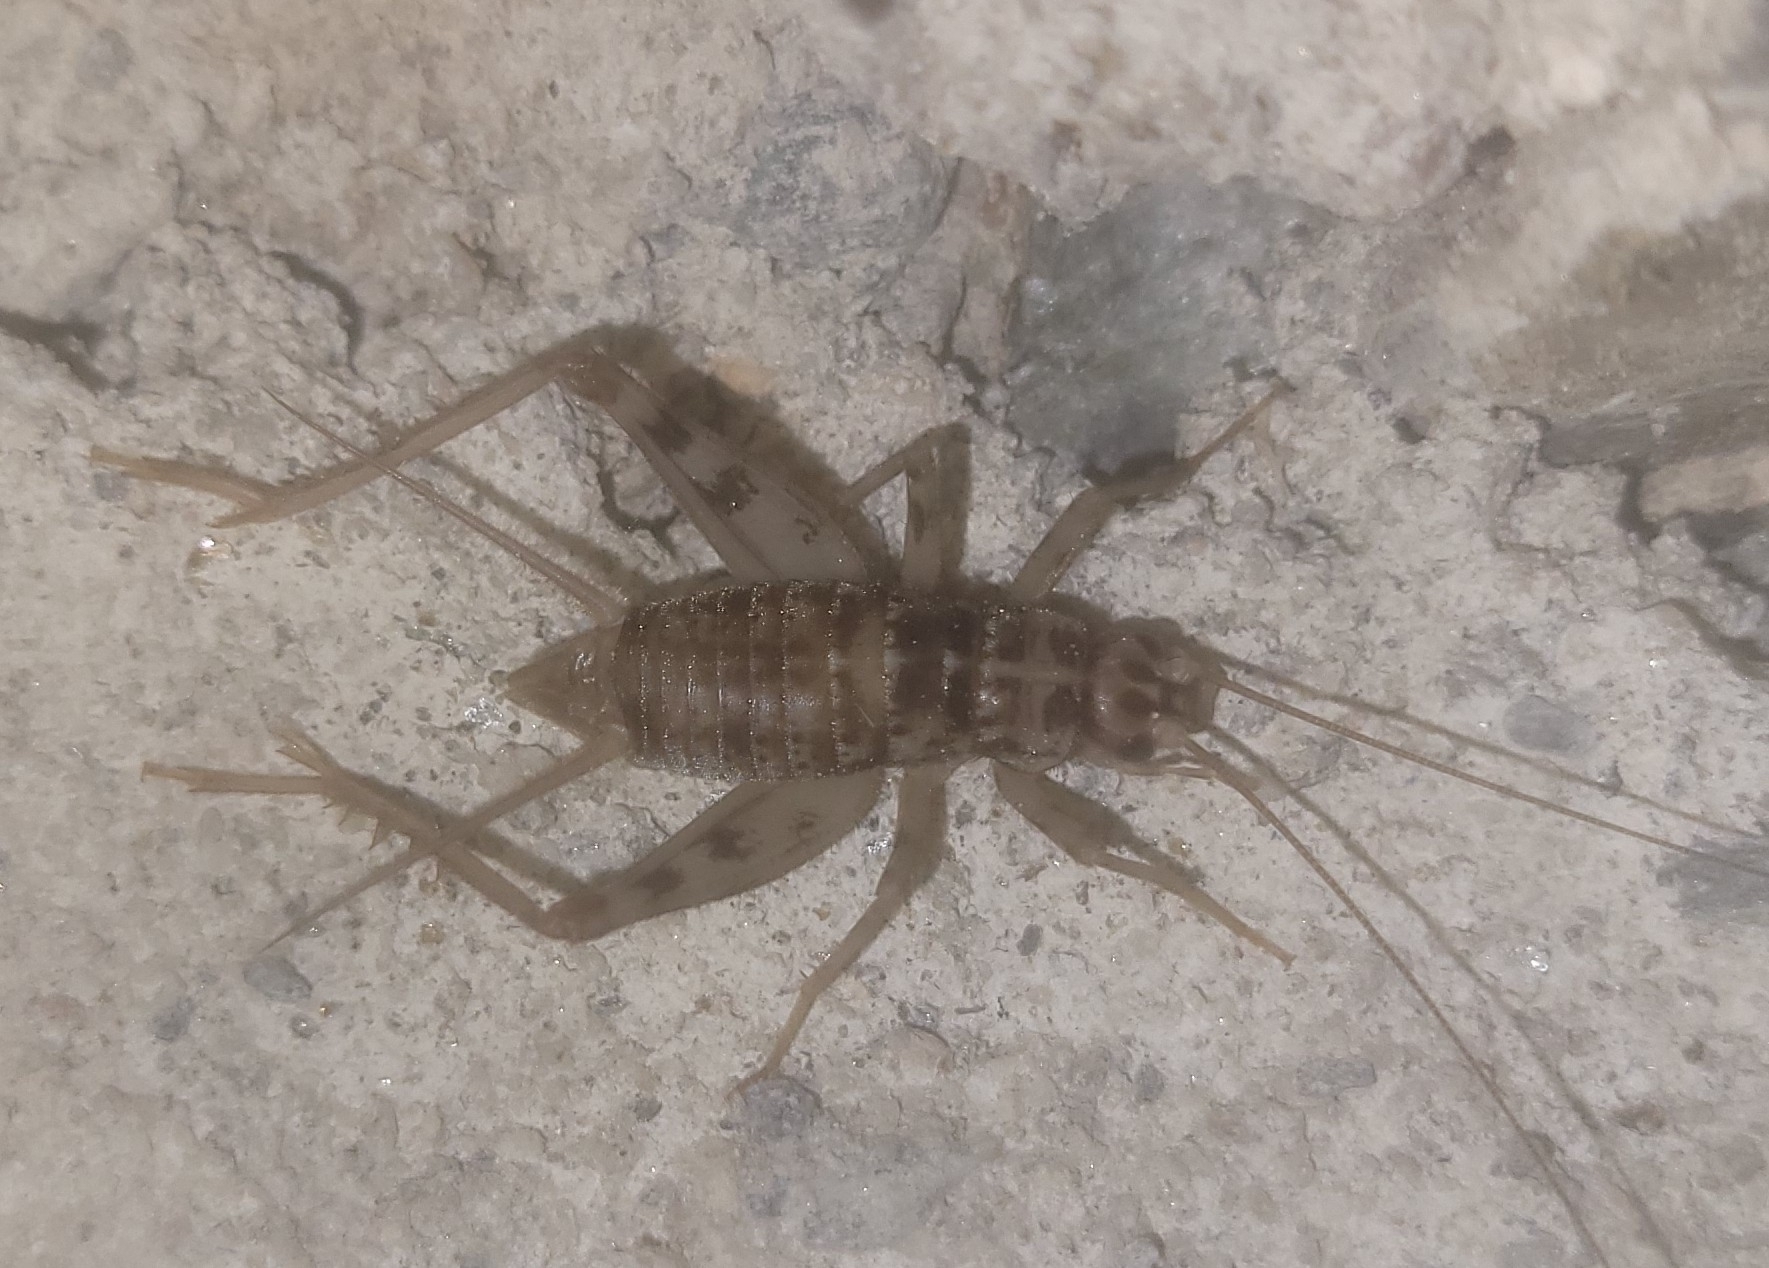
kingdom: Animalia
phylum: Arthropoda
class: Insecta
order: Orthoptera
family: Gryllidae
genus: Gryllomorpha
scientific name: Gryllomorpha dalmatina
